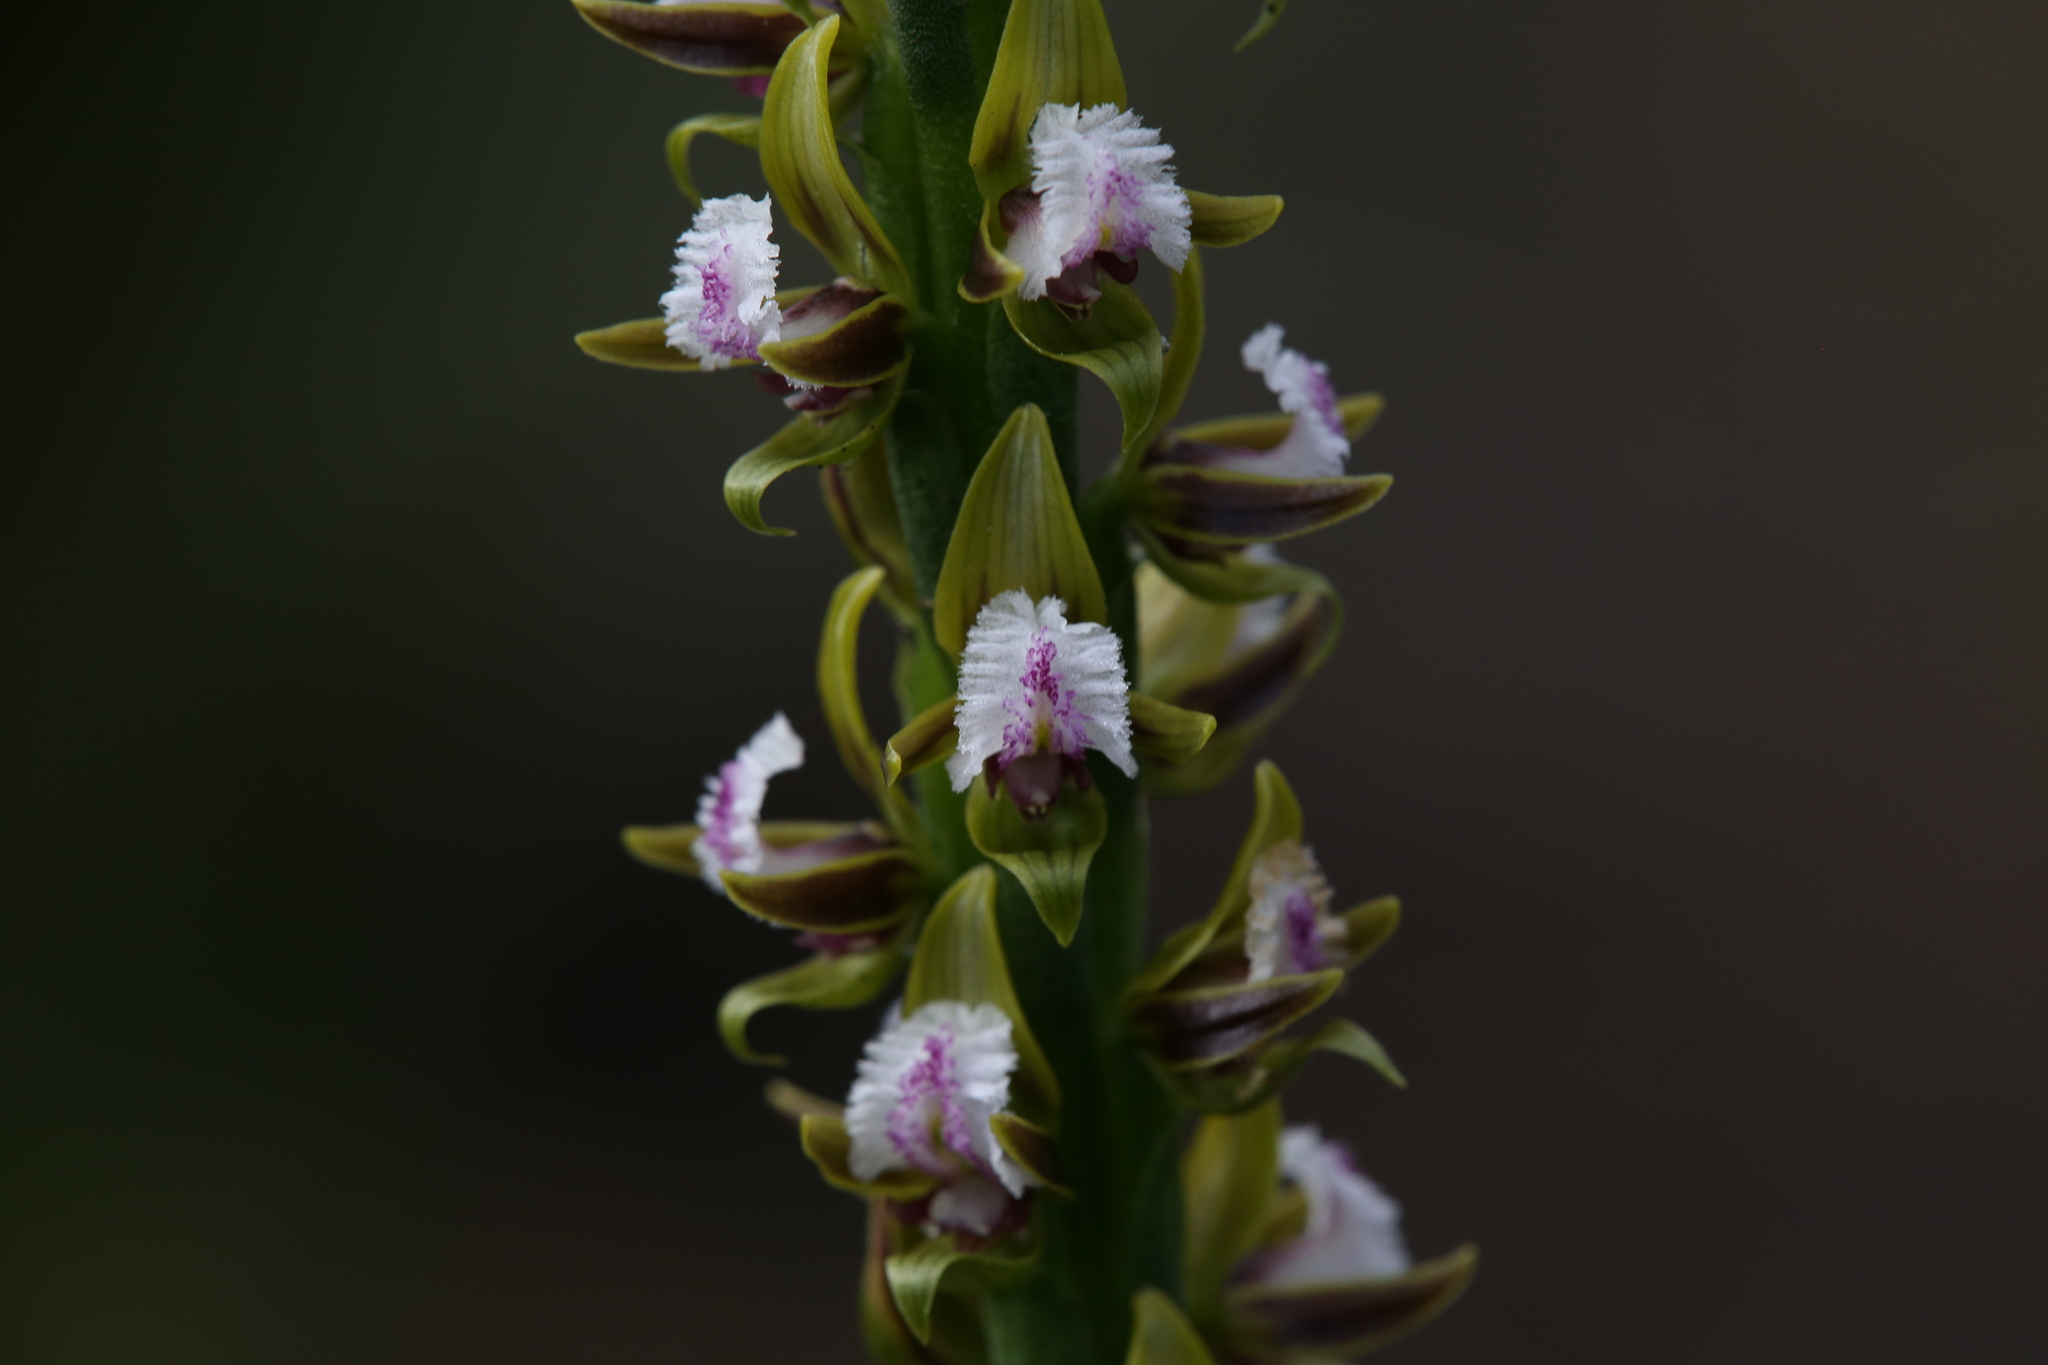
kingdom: Plantae
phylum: Tracheophyta
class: Liliopsida
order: Asparagales
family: Orchidaceae
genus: Prasophyllum
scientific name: Prasophyllum fimbria
